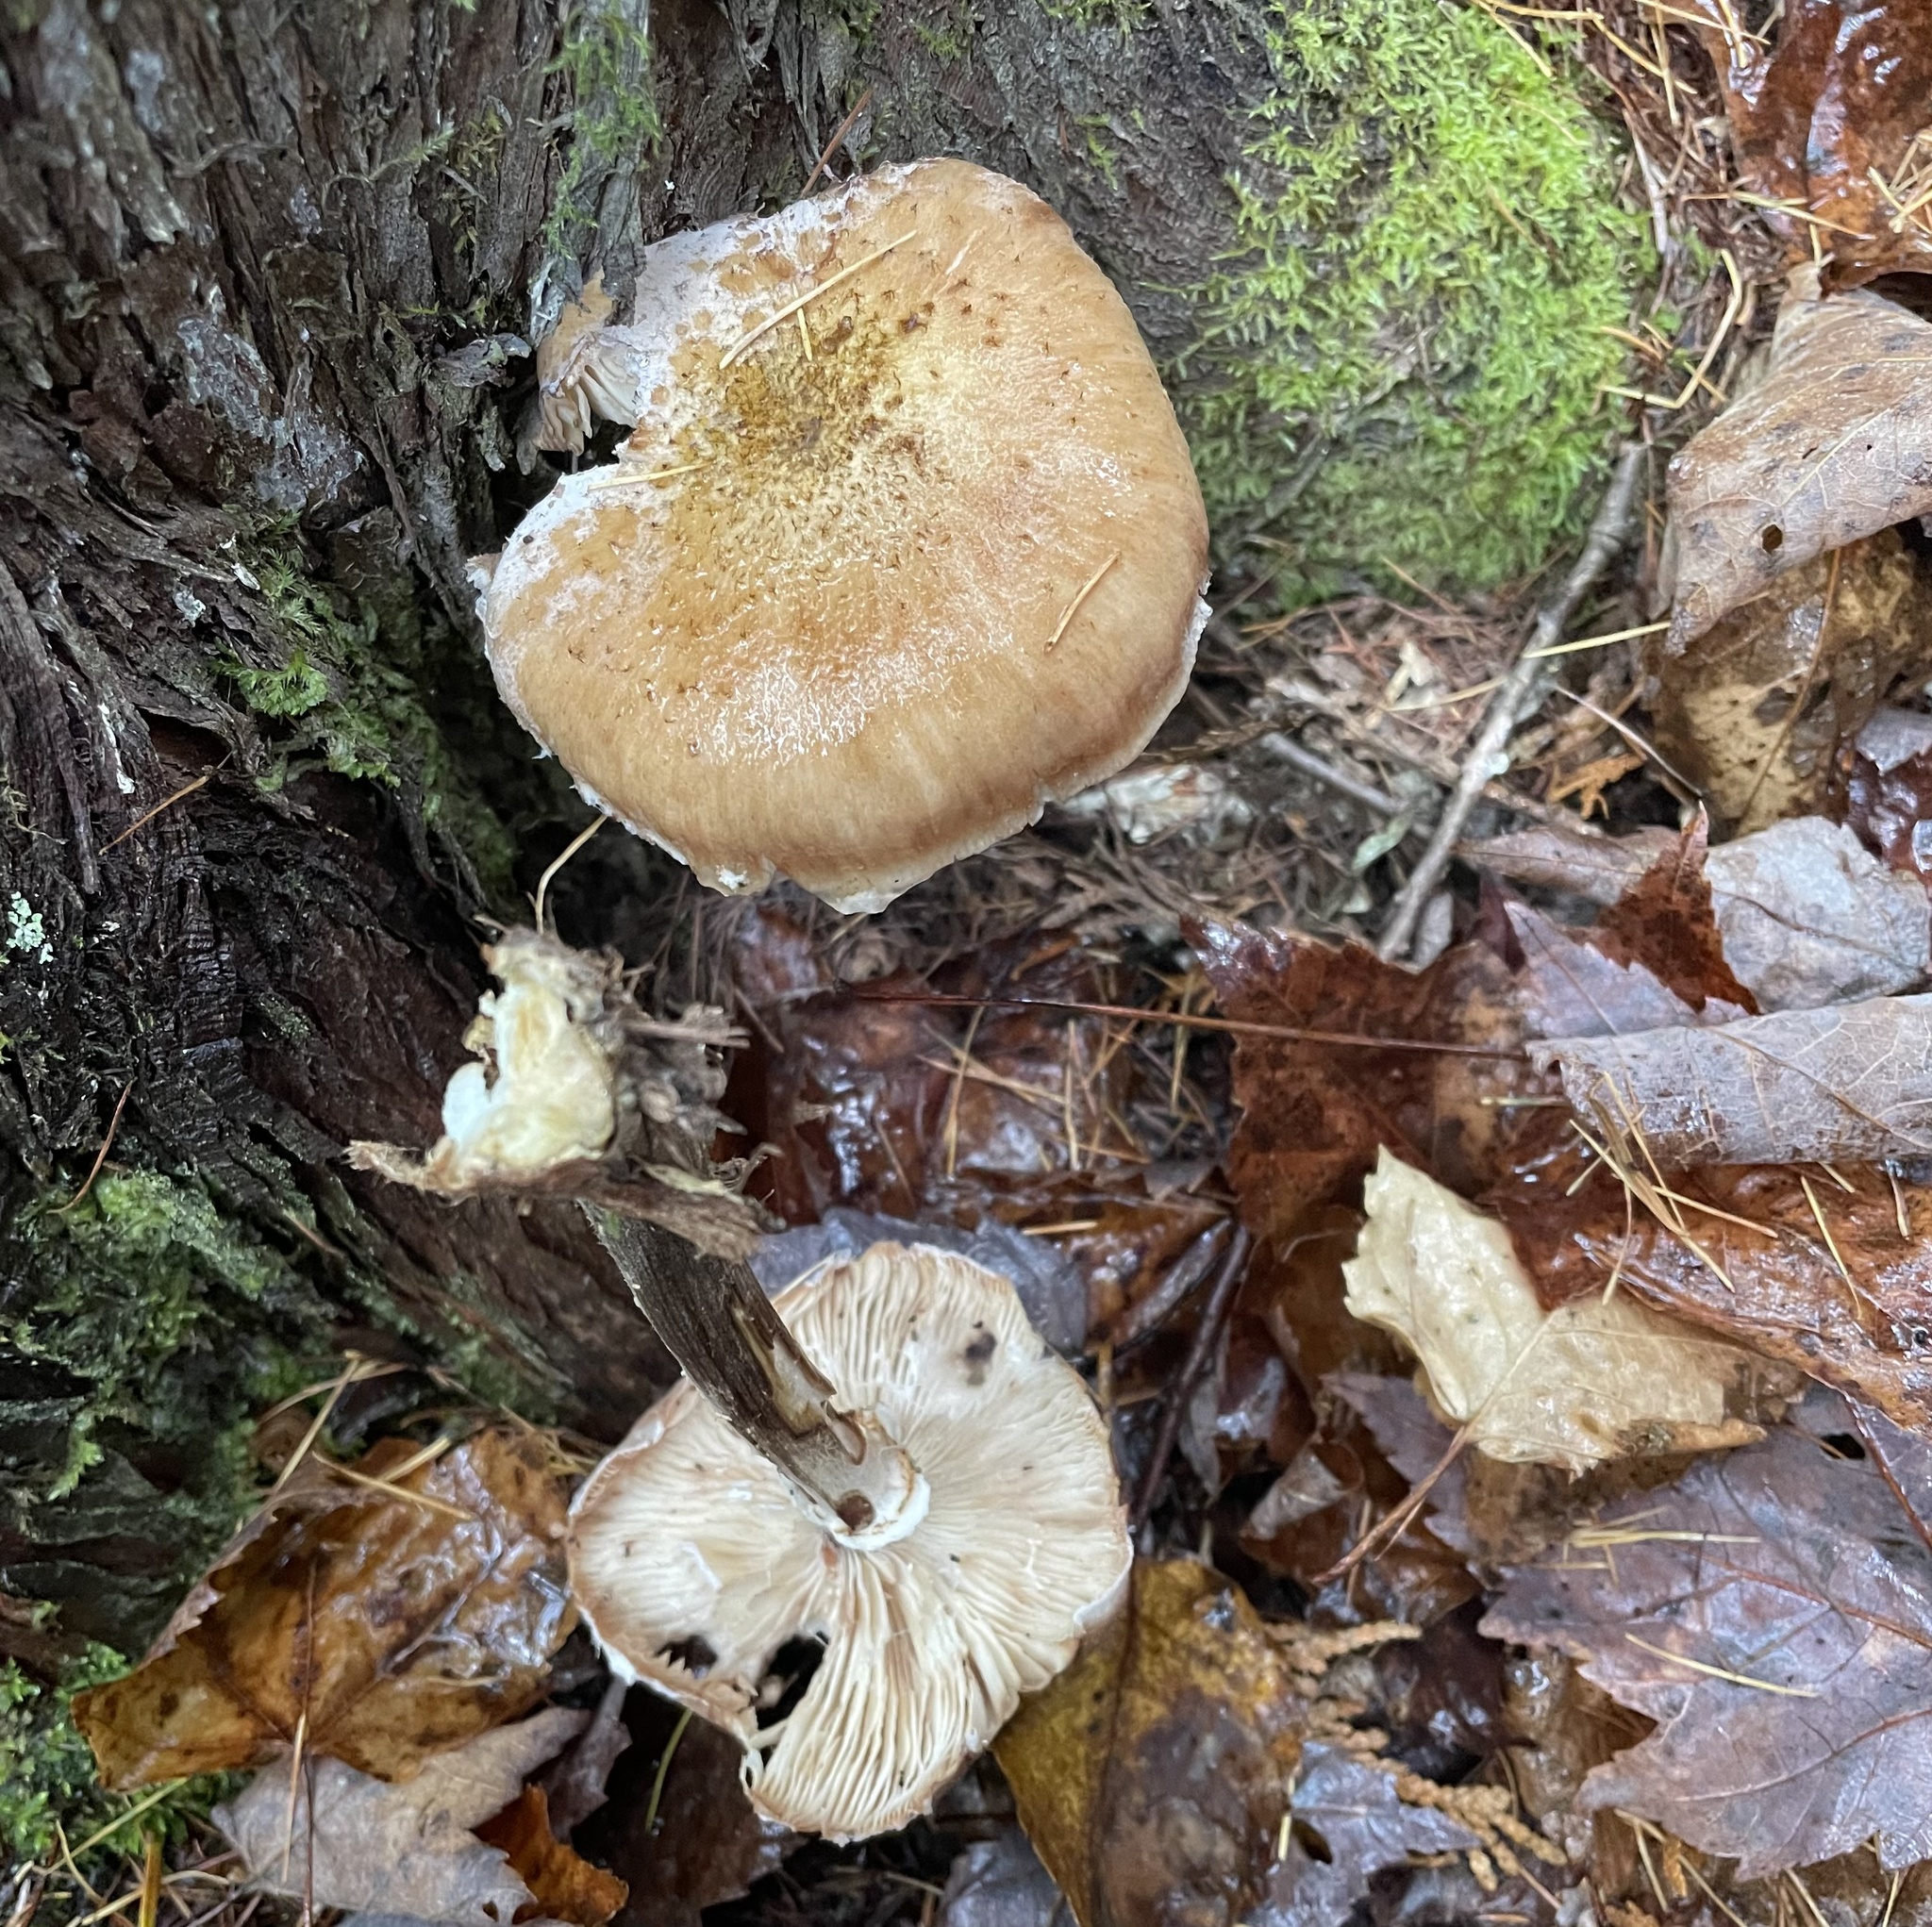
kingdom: Fungi
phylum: Basidiomycota
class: Agaricomycetes
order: Agaricales
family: Physalacriaceae
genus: Armillaria
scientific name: Armillaria ostoyae
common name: Dark honey fungus
